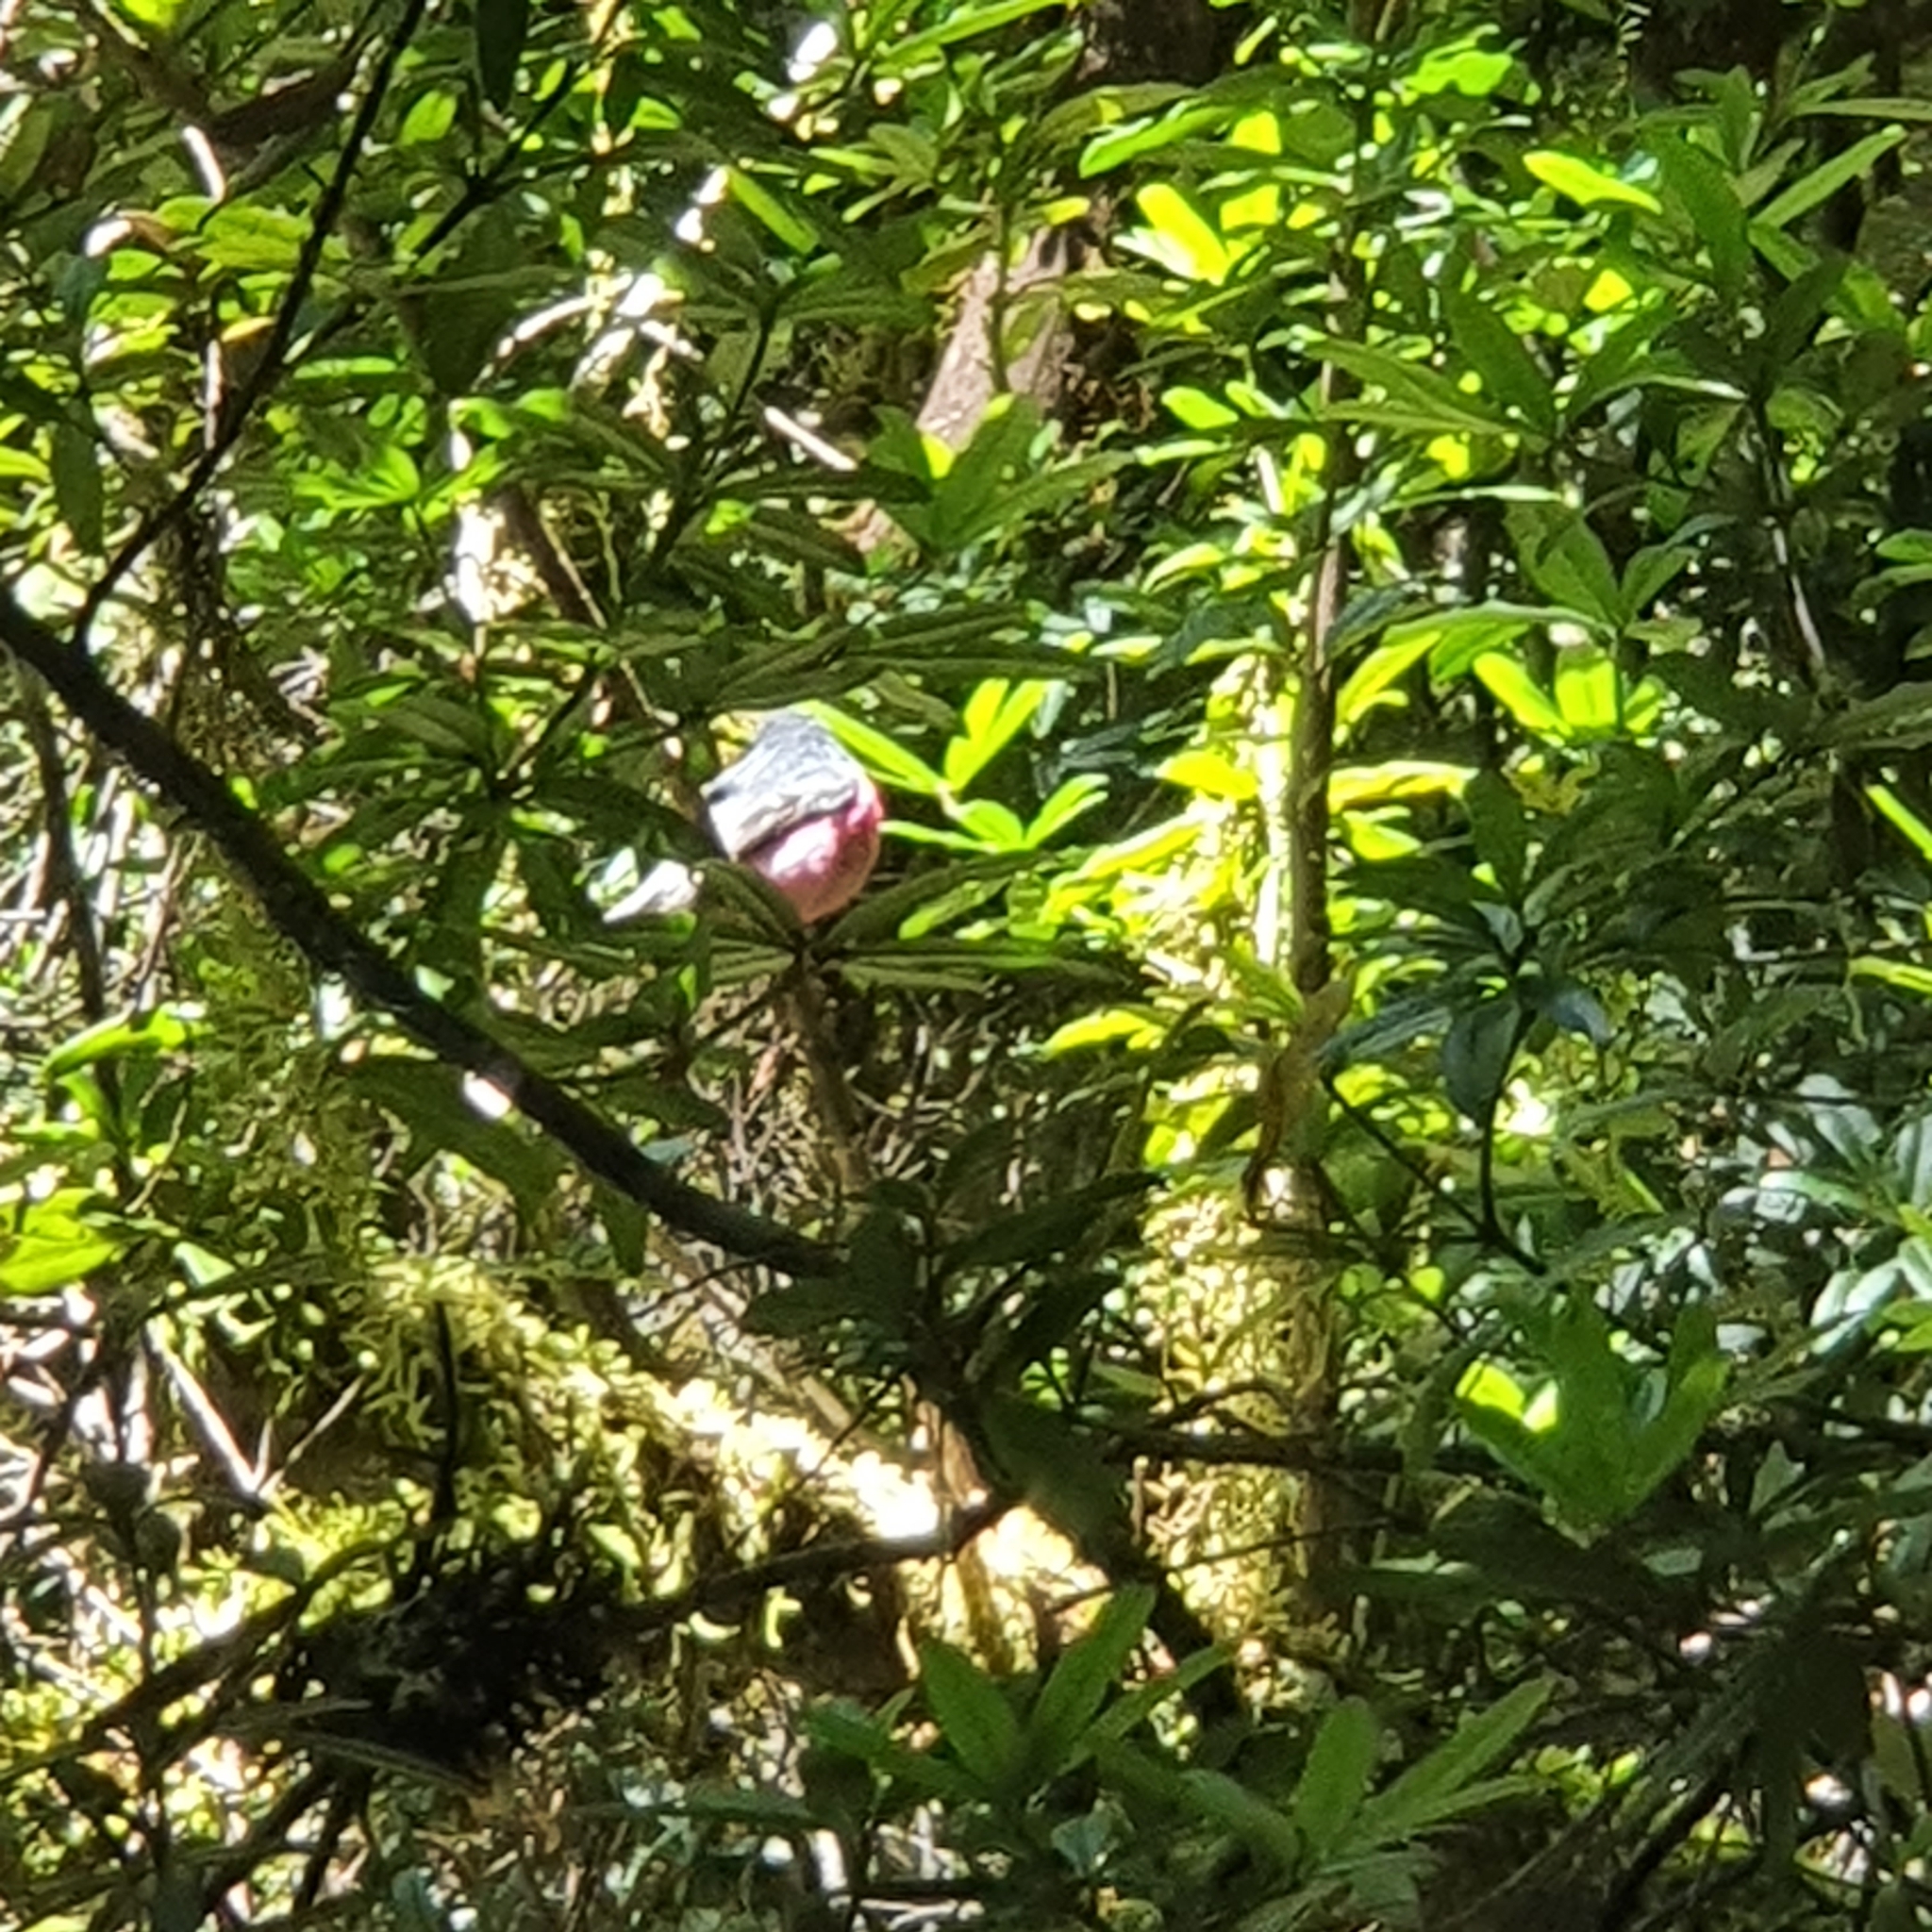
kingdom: Animalia
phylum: Chordata
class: Aves
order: Passeriformes
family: Petroicidae
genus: Petroica
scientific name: Petroica rodinogaster
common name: Pink robin
